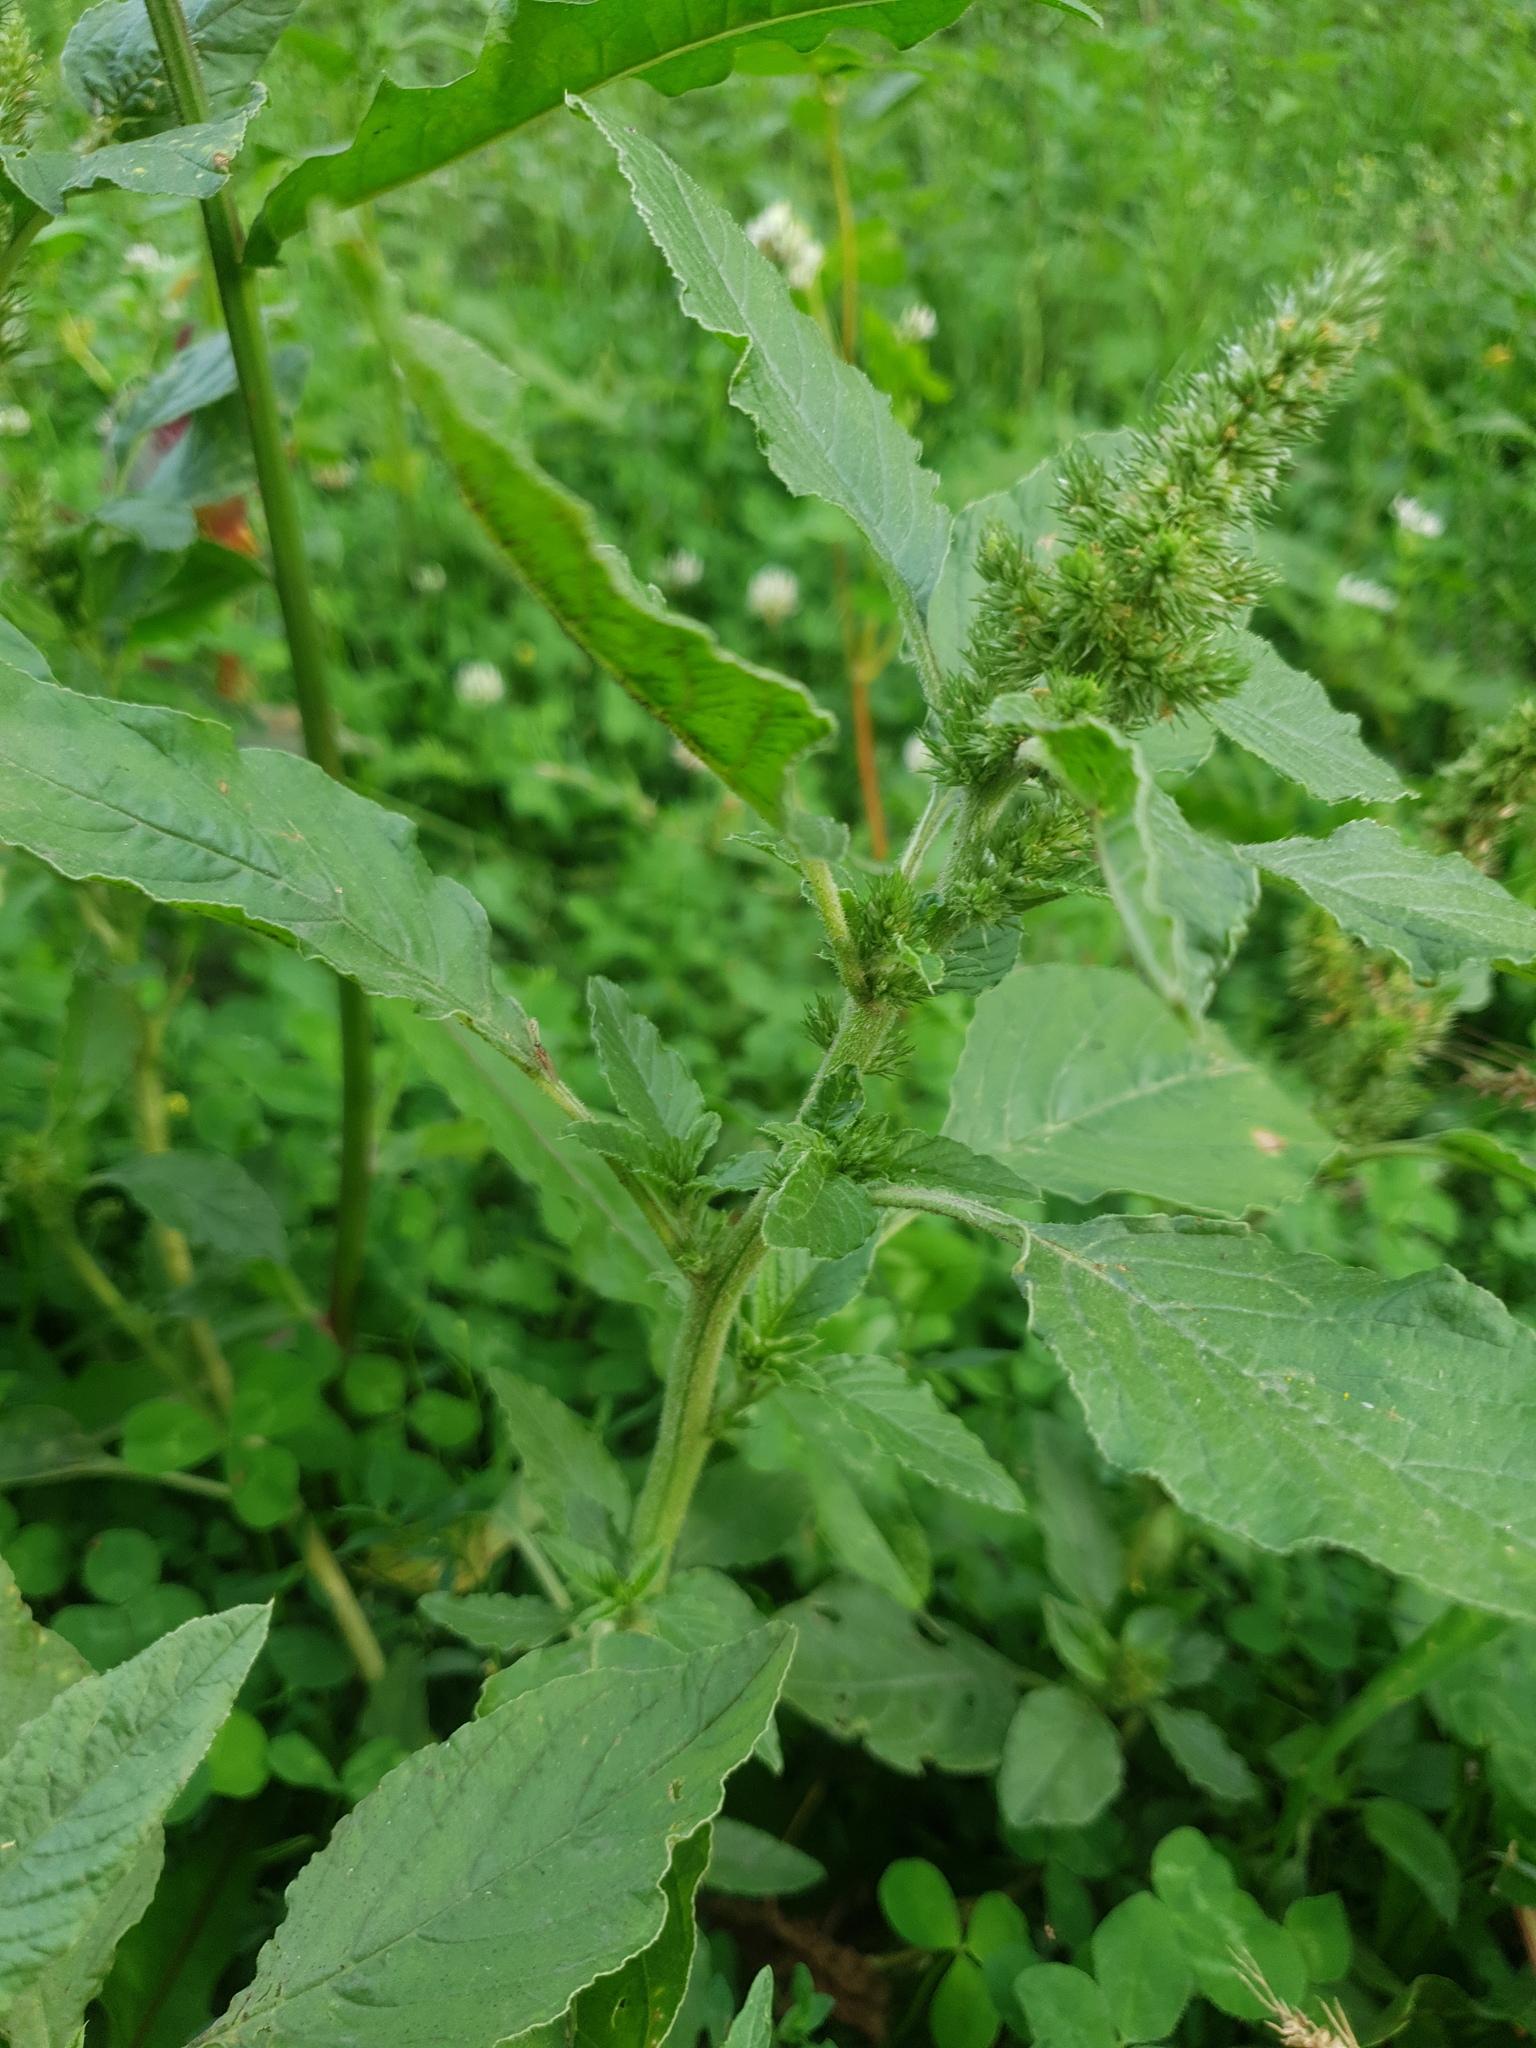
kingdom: Plantae
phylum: Tracheophyta
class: Magnoliopsida
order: Caryophyllales
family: Amaranthaceae
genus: Amaranthus
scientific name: Amaranthus retroflexus
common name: Redroot amaranth
